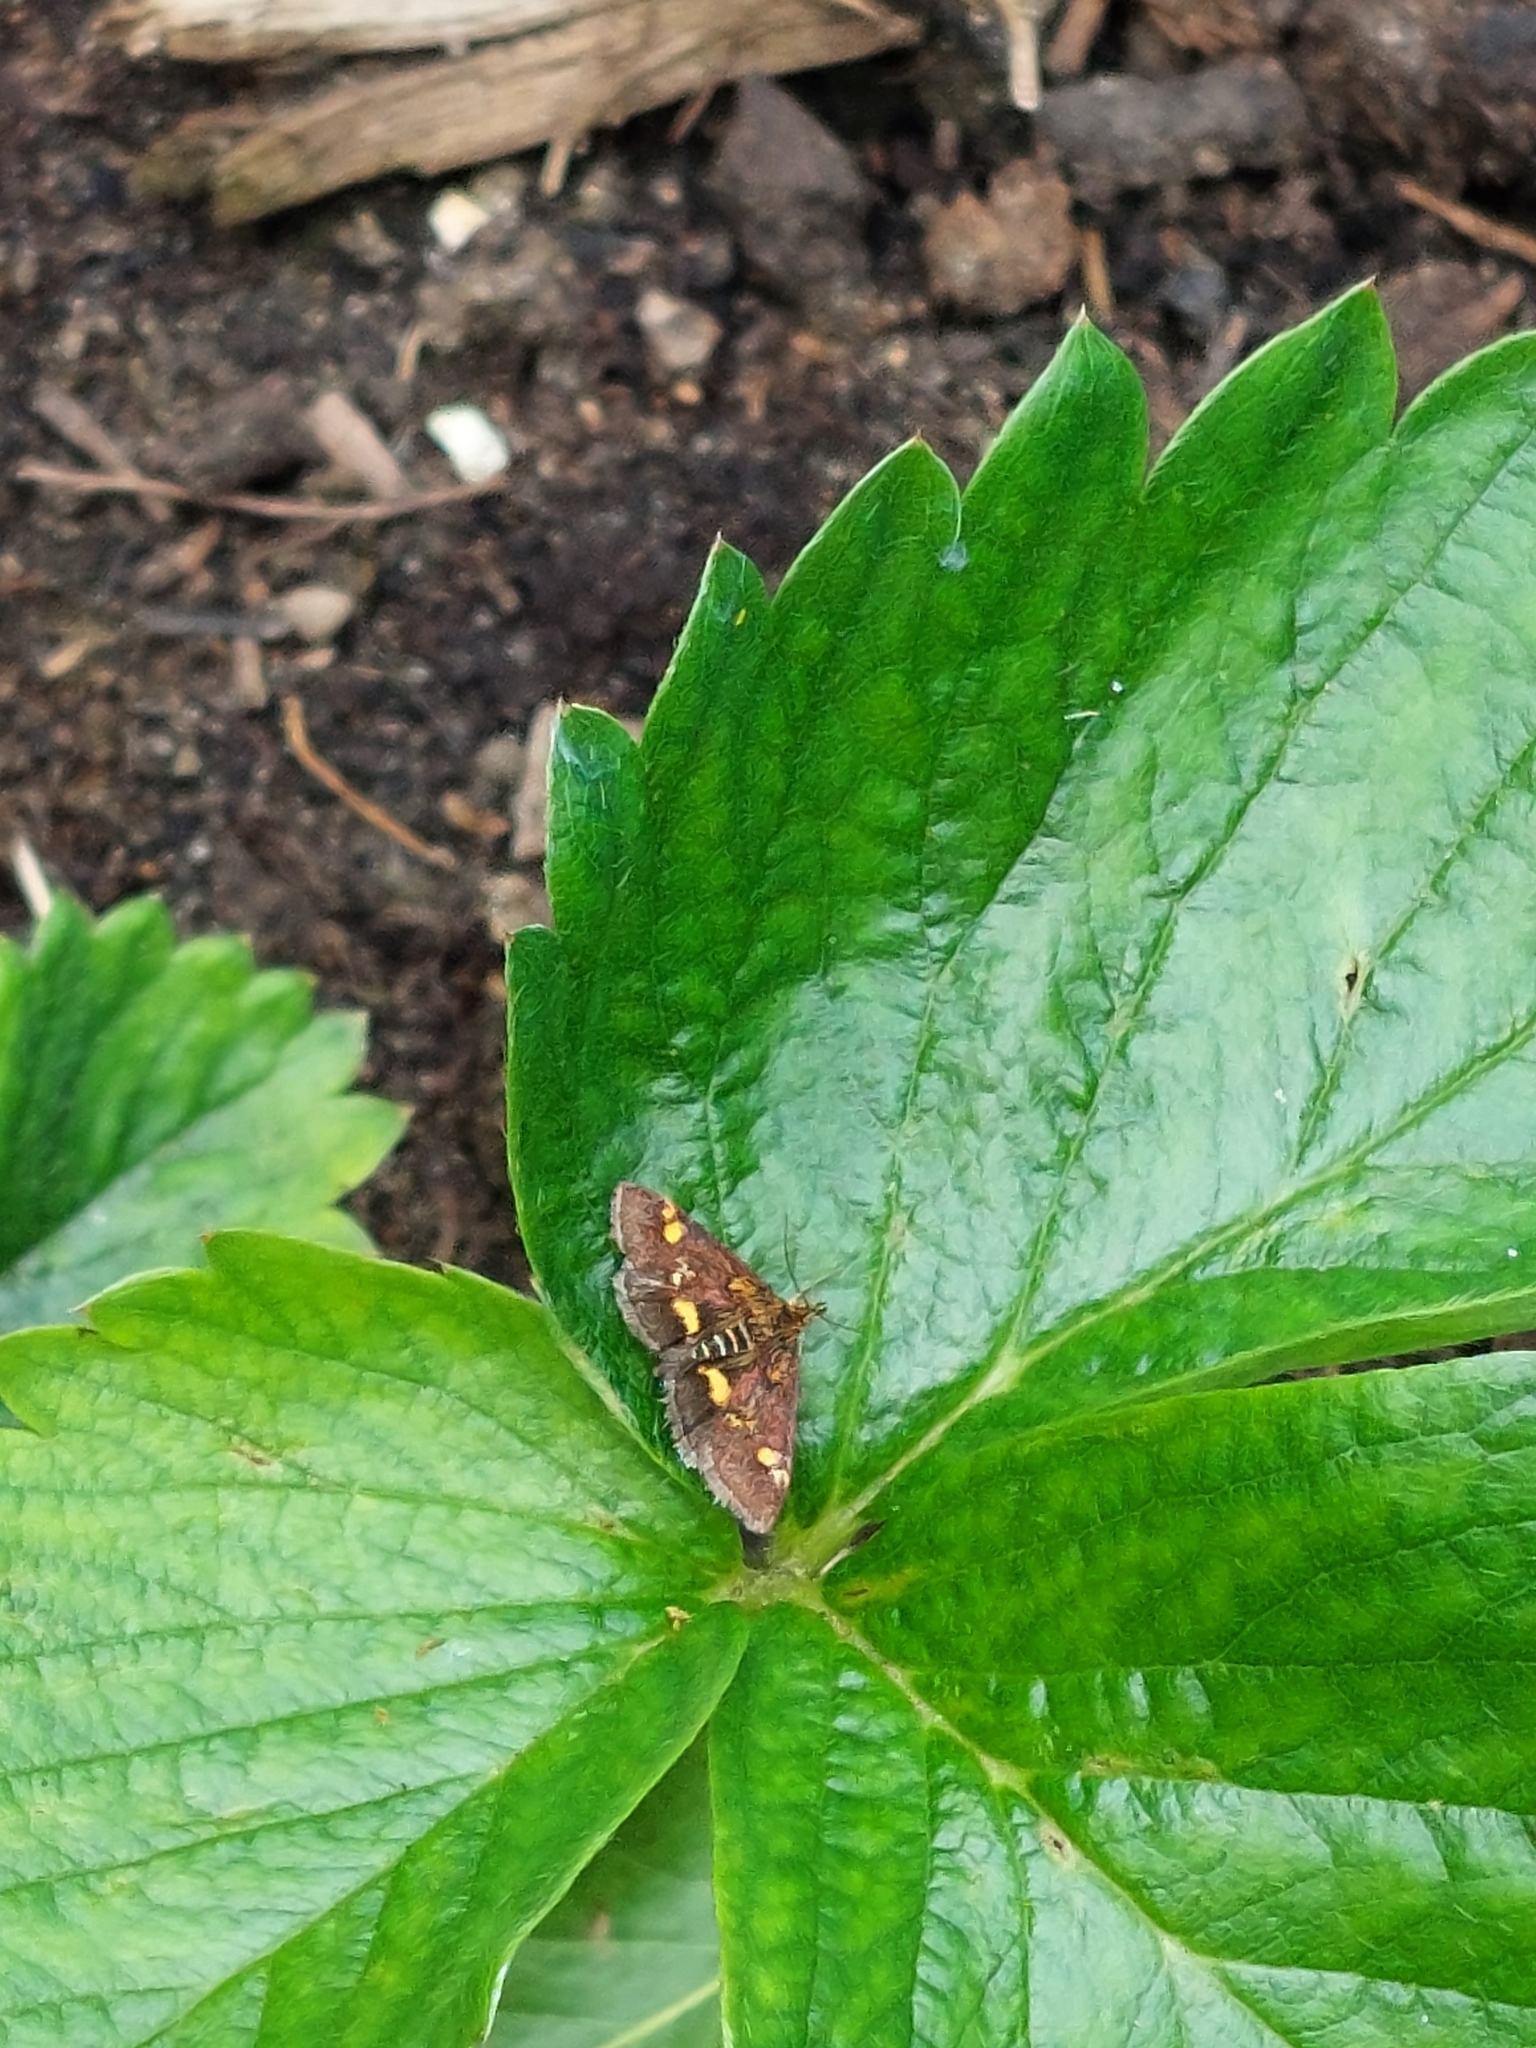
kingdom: Animalia
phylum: Arthropoda
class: Insecta
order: Lepidoptera
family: Crambidae
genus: Pyrausta
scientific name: Pyrausta aurata
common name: Small purple & gold
